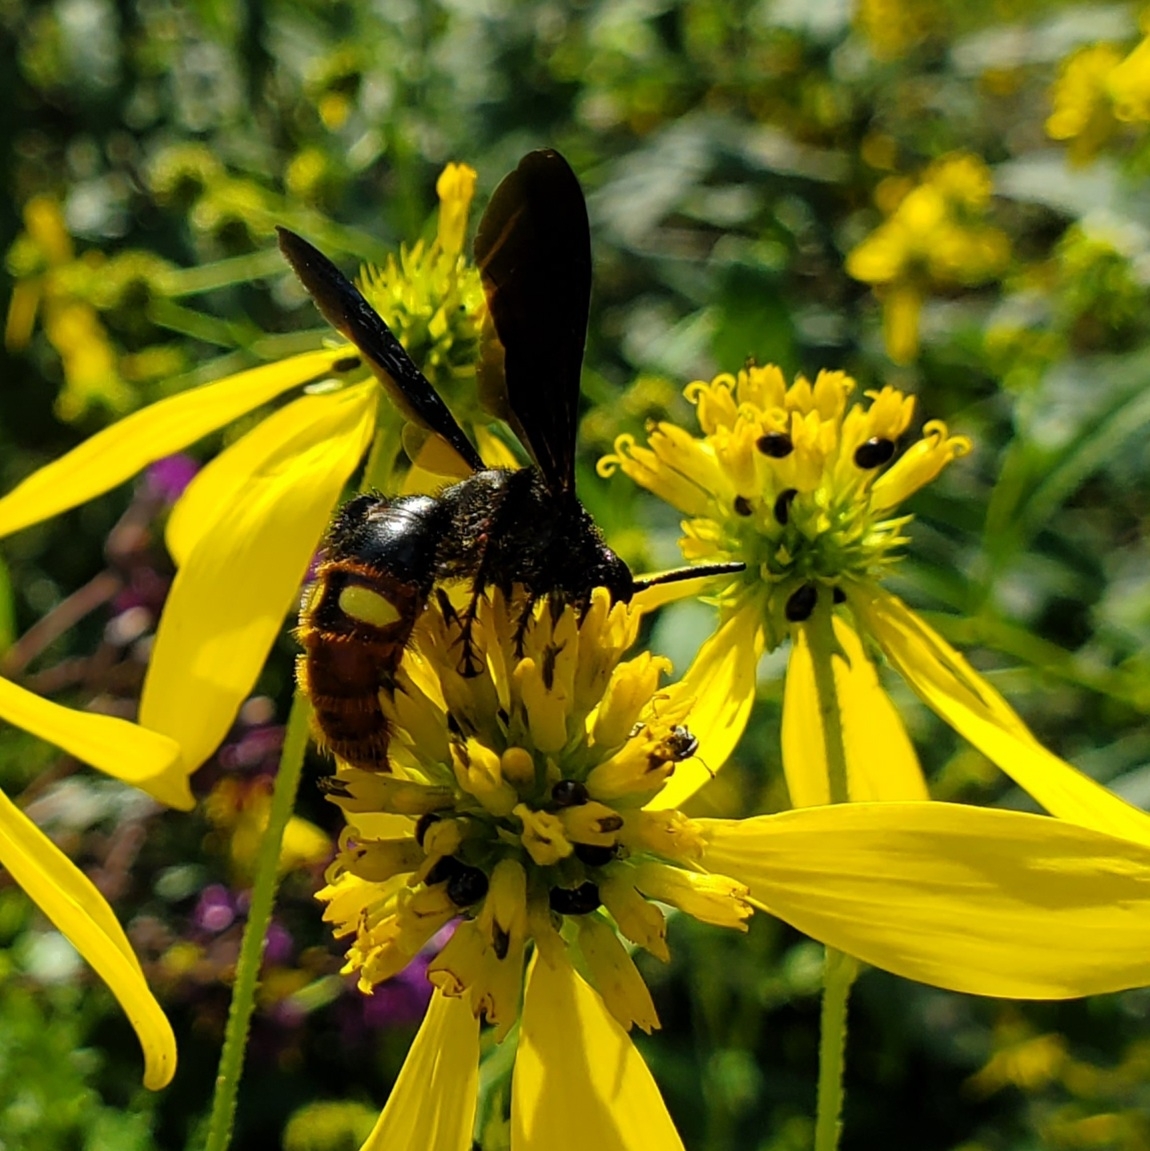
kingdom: Animalia
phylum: Arthropoda
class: Insecta
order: Hymenoptera
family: Scoliidae
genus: Scolia
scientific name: Scolia dubia
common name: Blue-winged scoliid wasp
